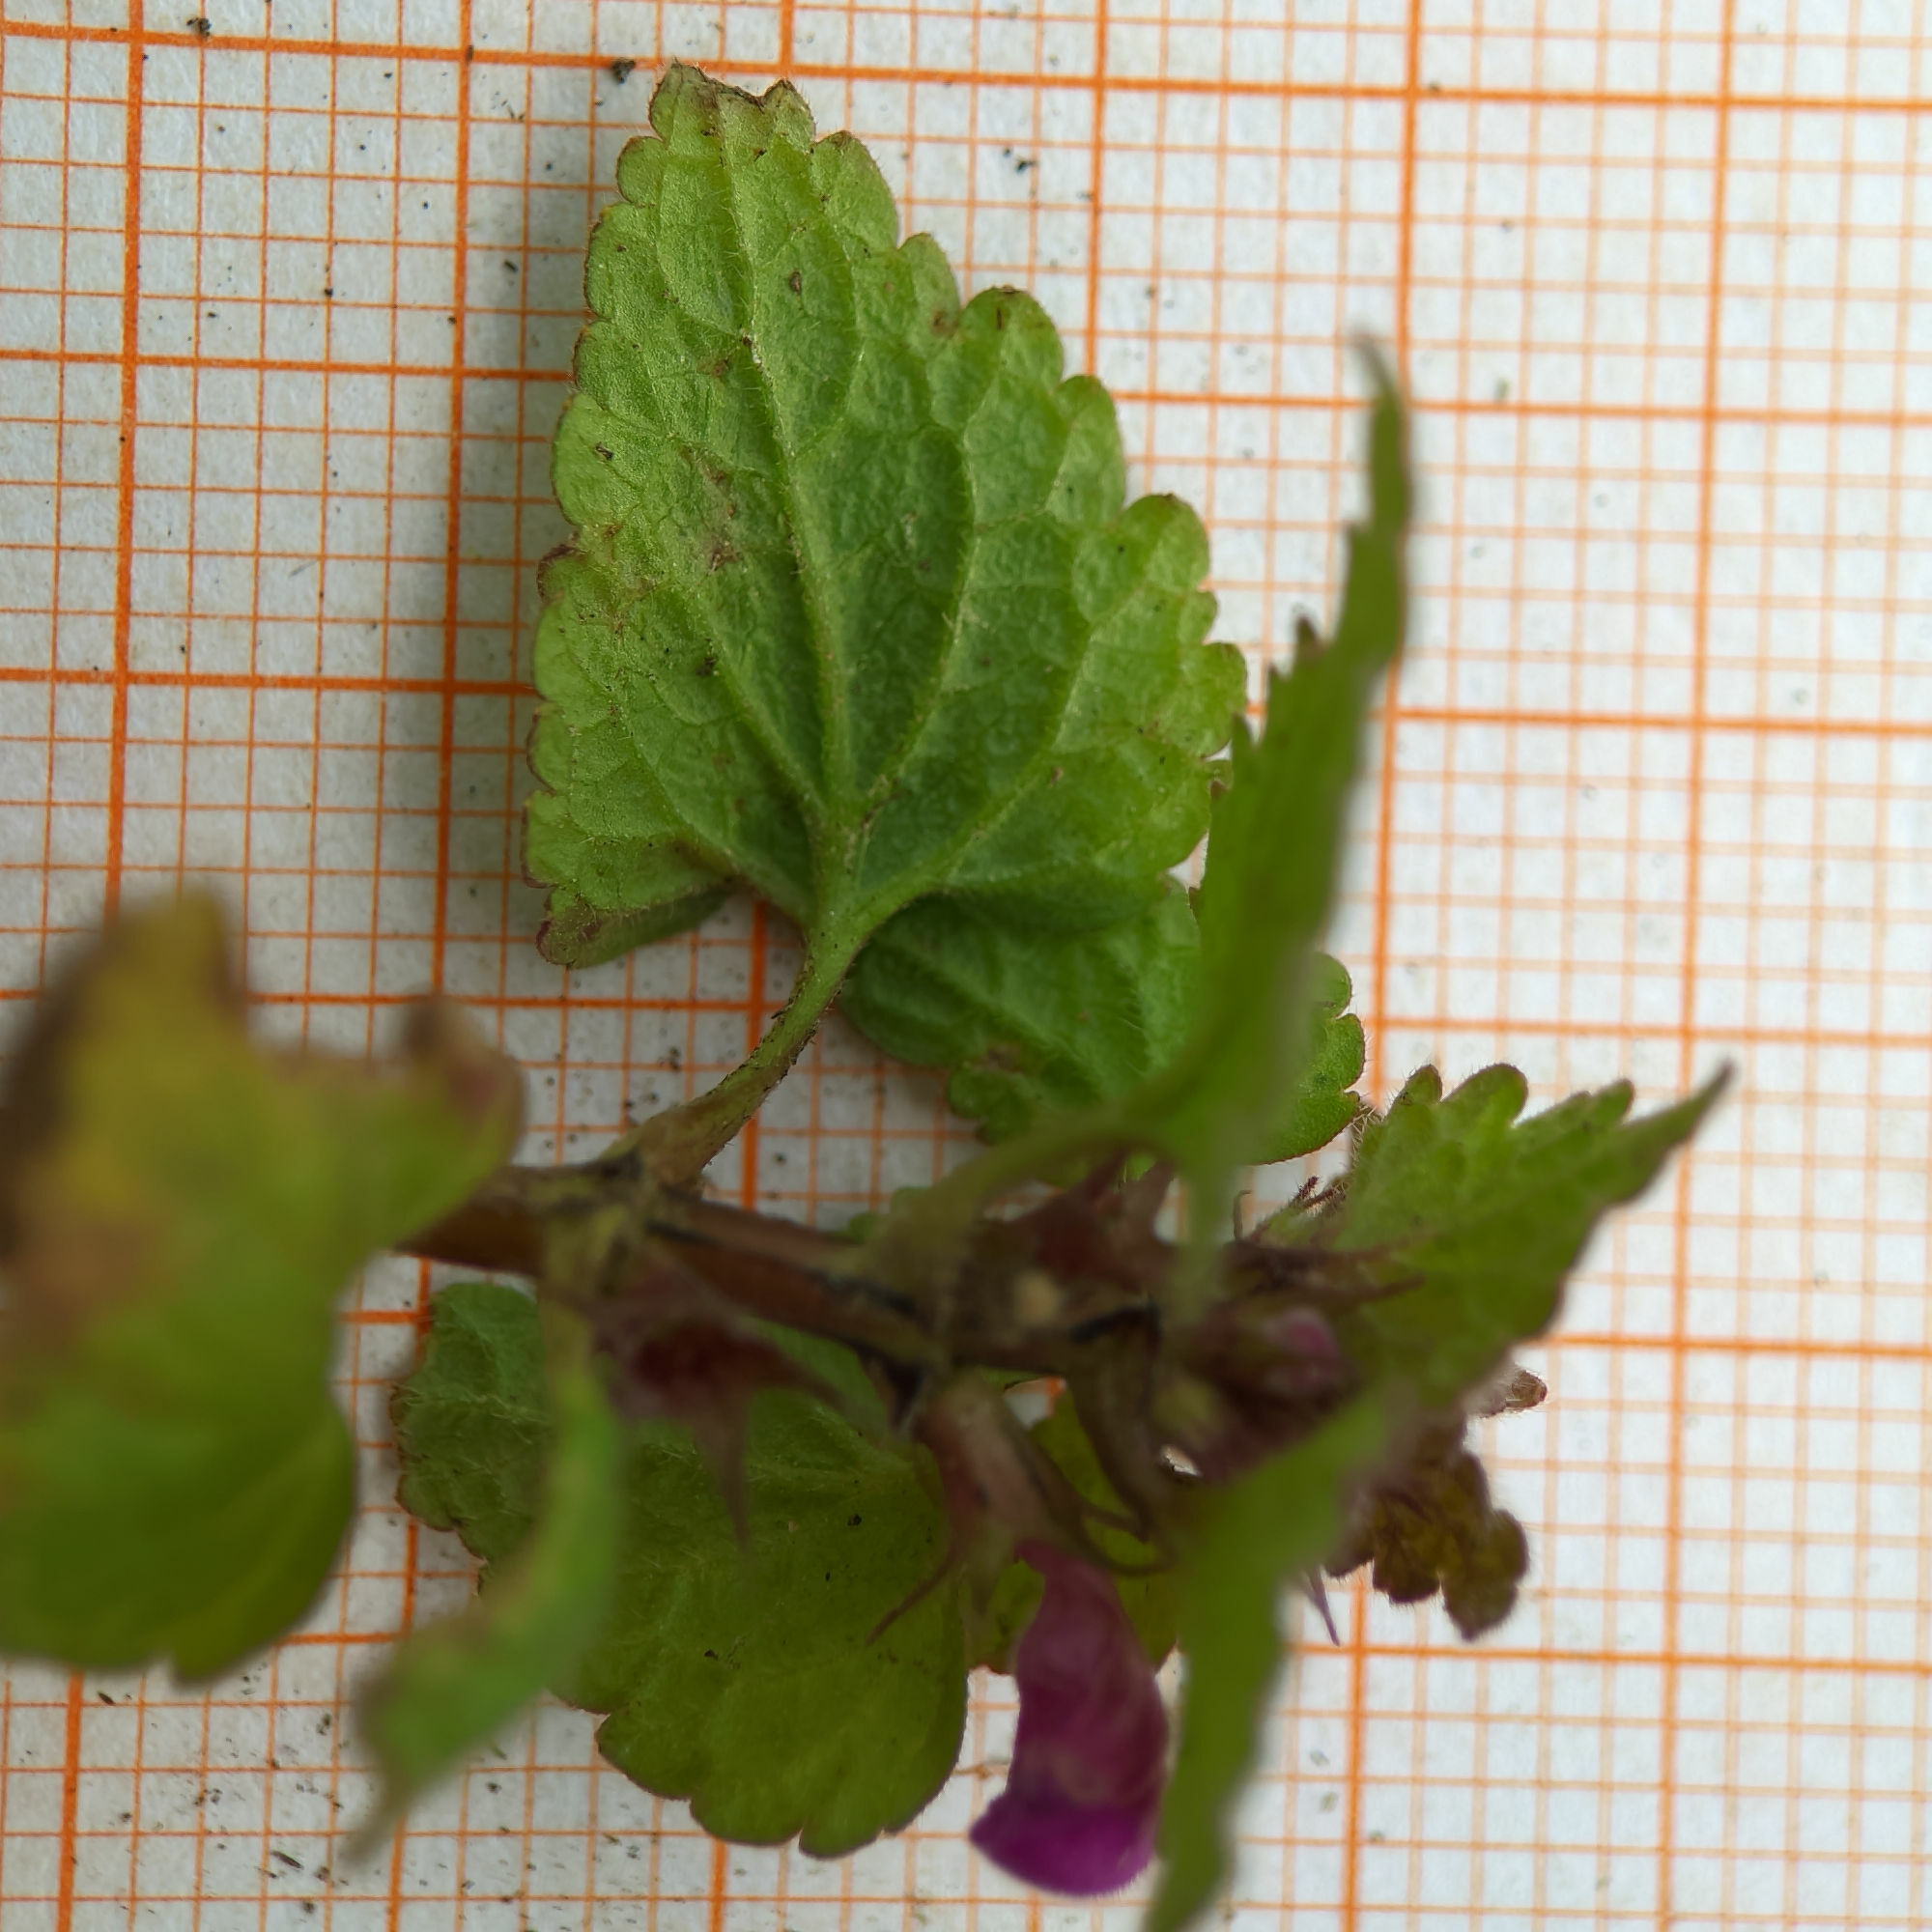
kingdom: Plantae
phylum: Tracheophyta
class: Magnoliopsida
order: Lamiales
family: Lamiaceae
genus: Lamium
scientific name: Lamium purpureum
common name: Red dead-nettle
